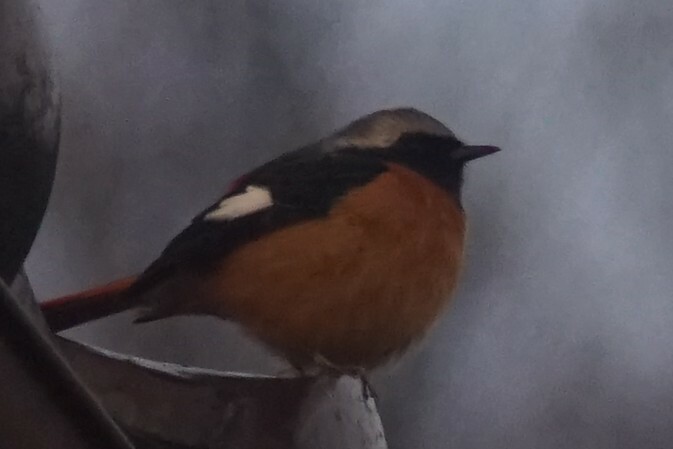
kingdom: Animalia
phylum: Chordata
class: Aves
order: Passeriformes
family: Muscicapidae
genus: Phoenicurus
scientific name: Phoenicurus auroreus
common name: Daurian redstart
